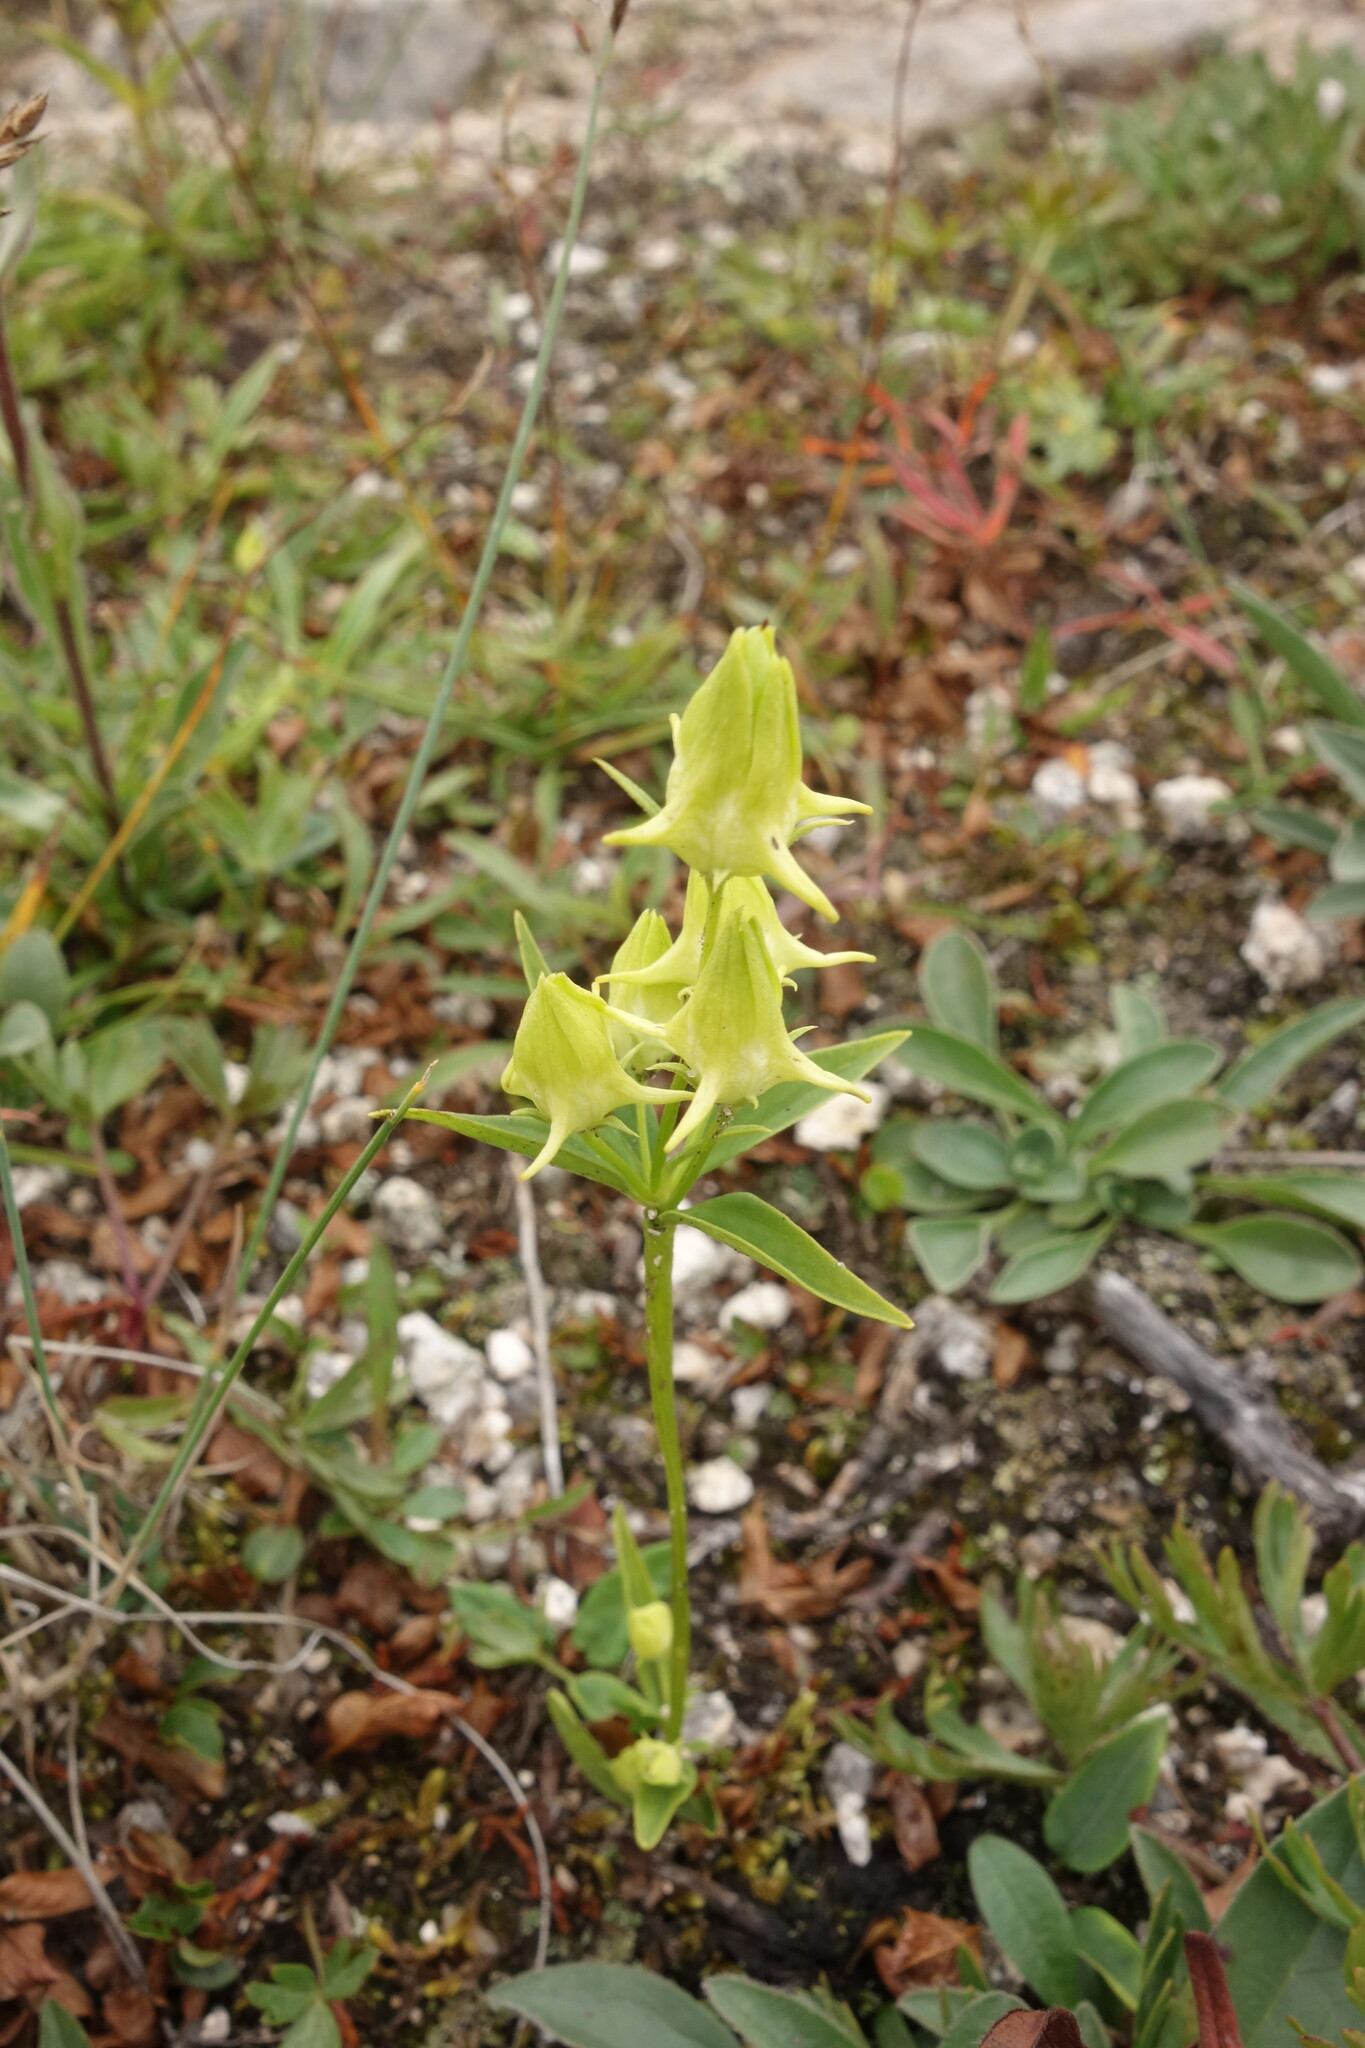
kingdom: Plantae
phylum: Tracheophyta
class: Magnoliopsida
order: Gentianales
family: Gentianaceae
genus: Halenia
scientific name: Halenia corniculata
